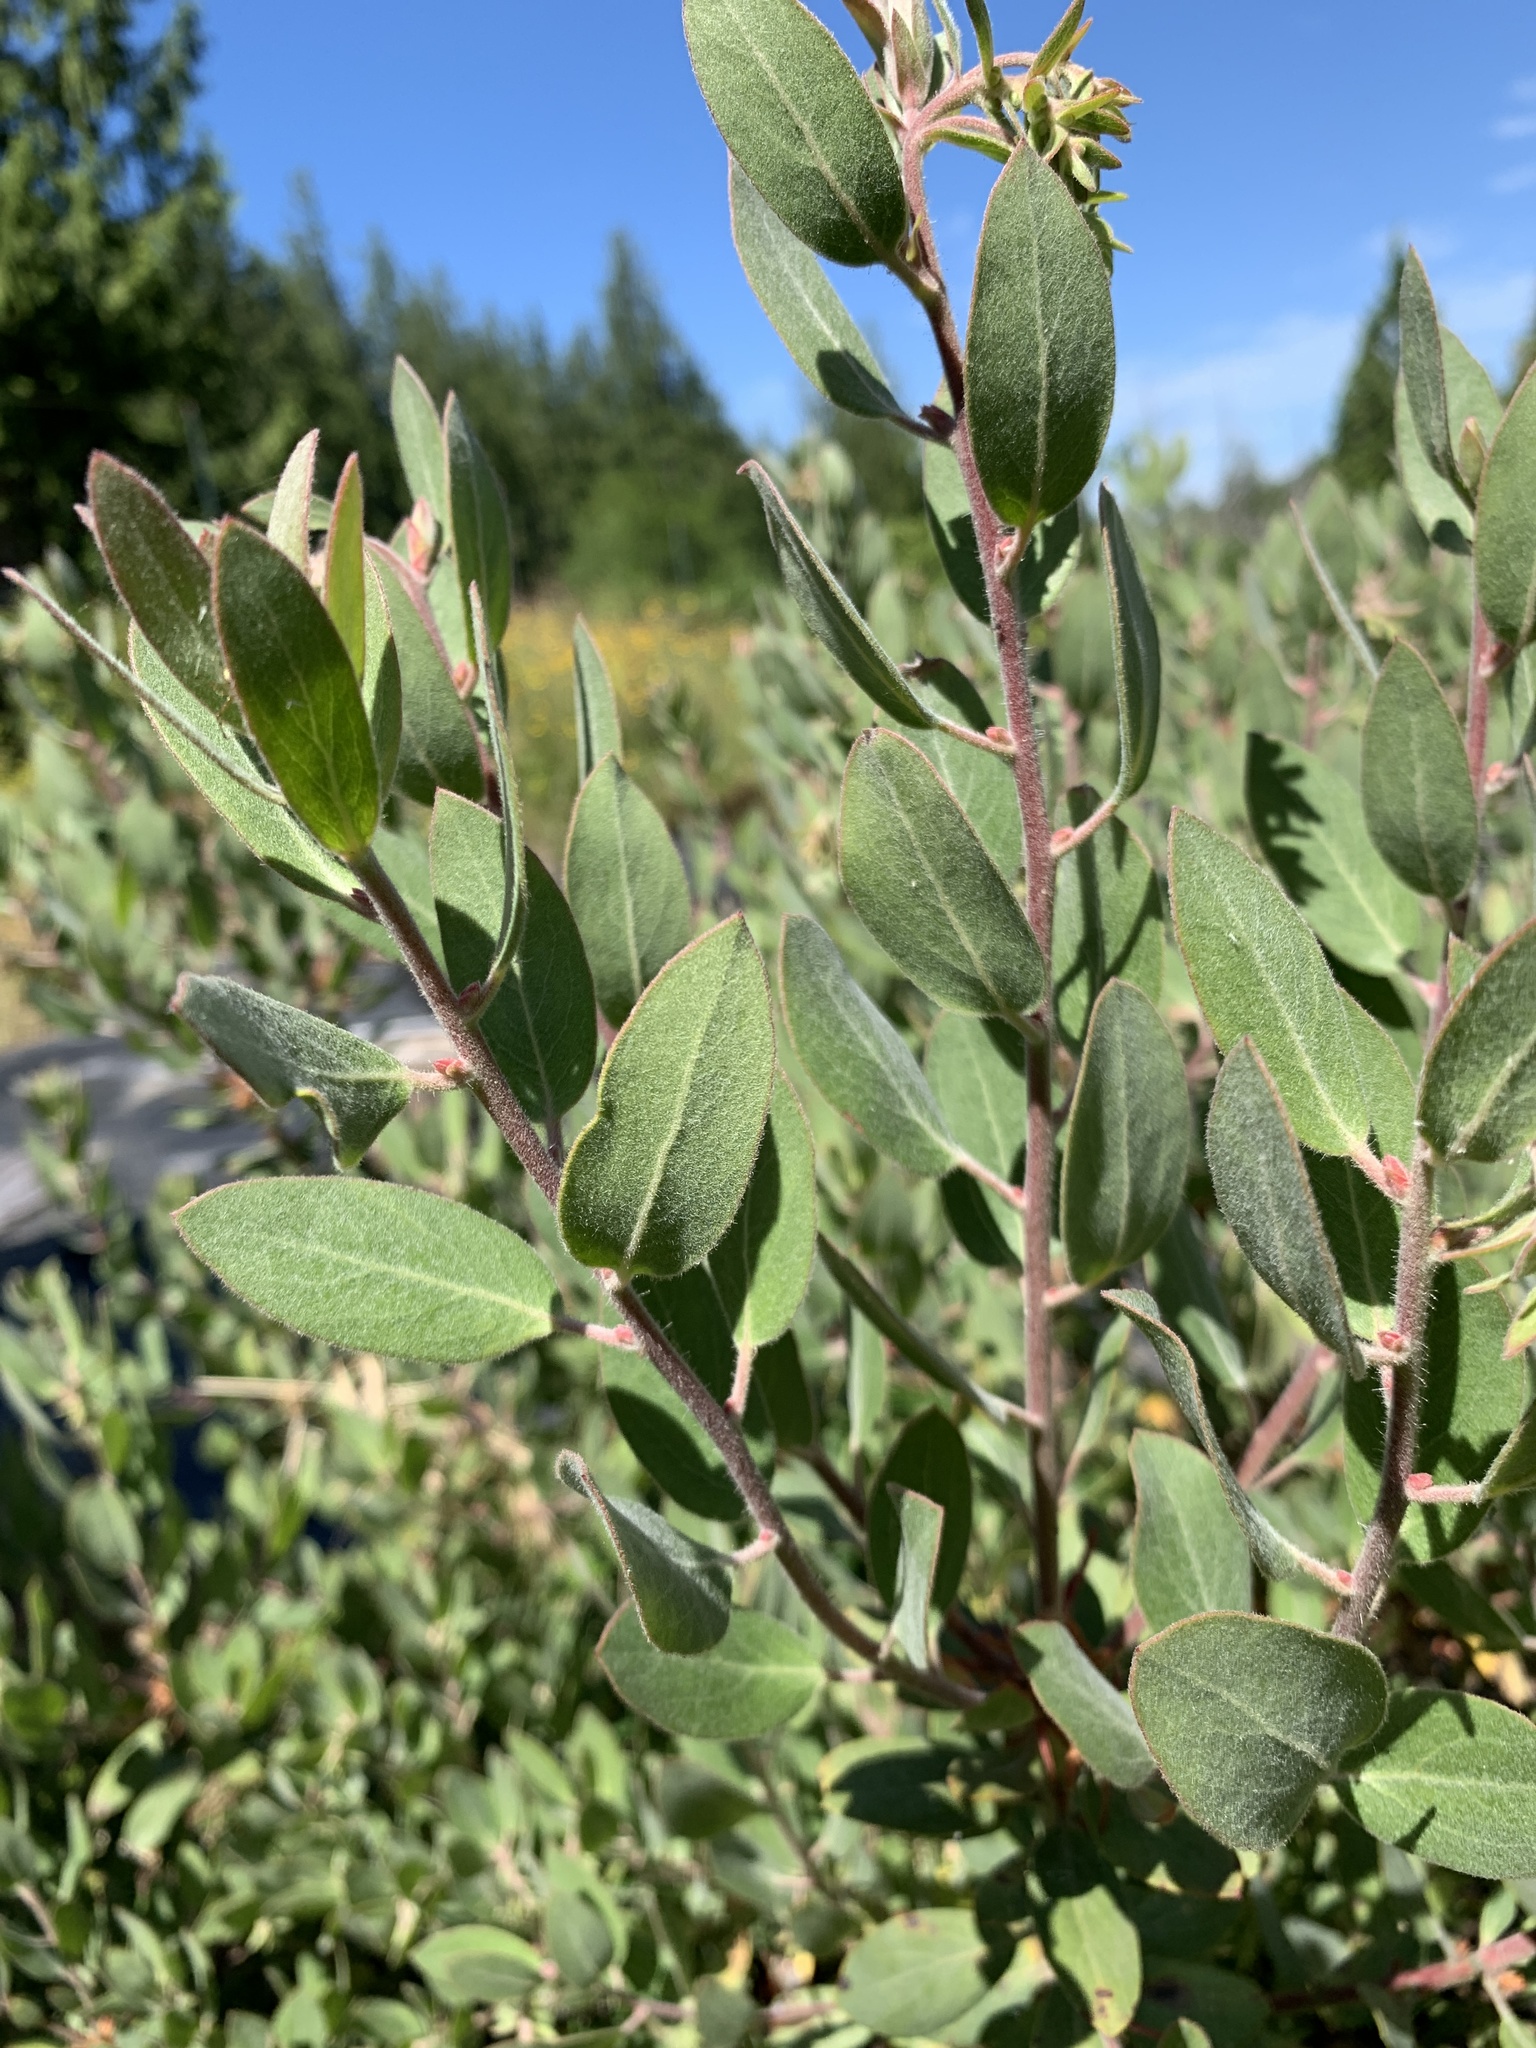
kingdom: Plantae
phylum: Tracheophyta
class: Magnoliopsida
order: Ericales
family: Ericaceae
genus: Arctostaphylos
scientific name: Arctostaphylos columbiana
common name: Bristly bearberry
